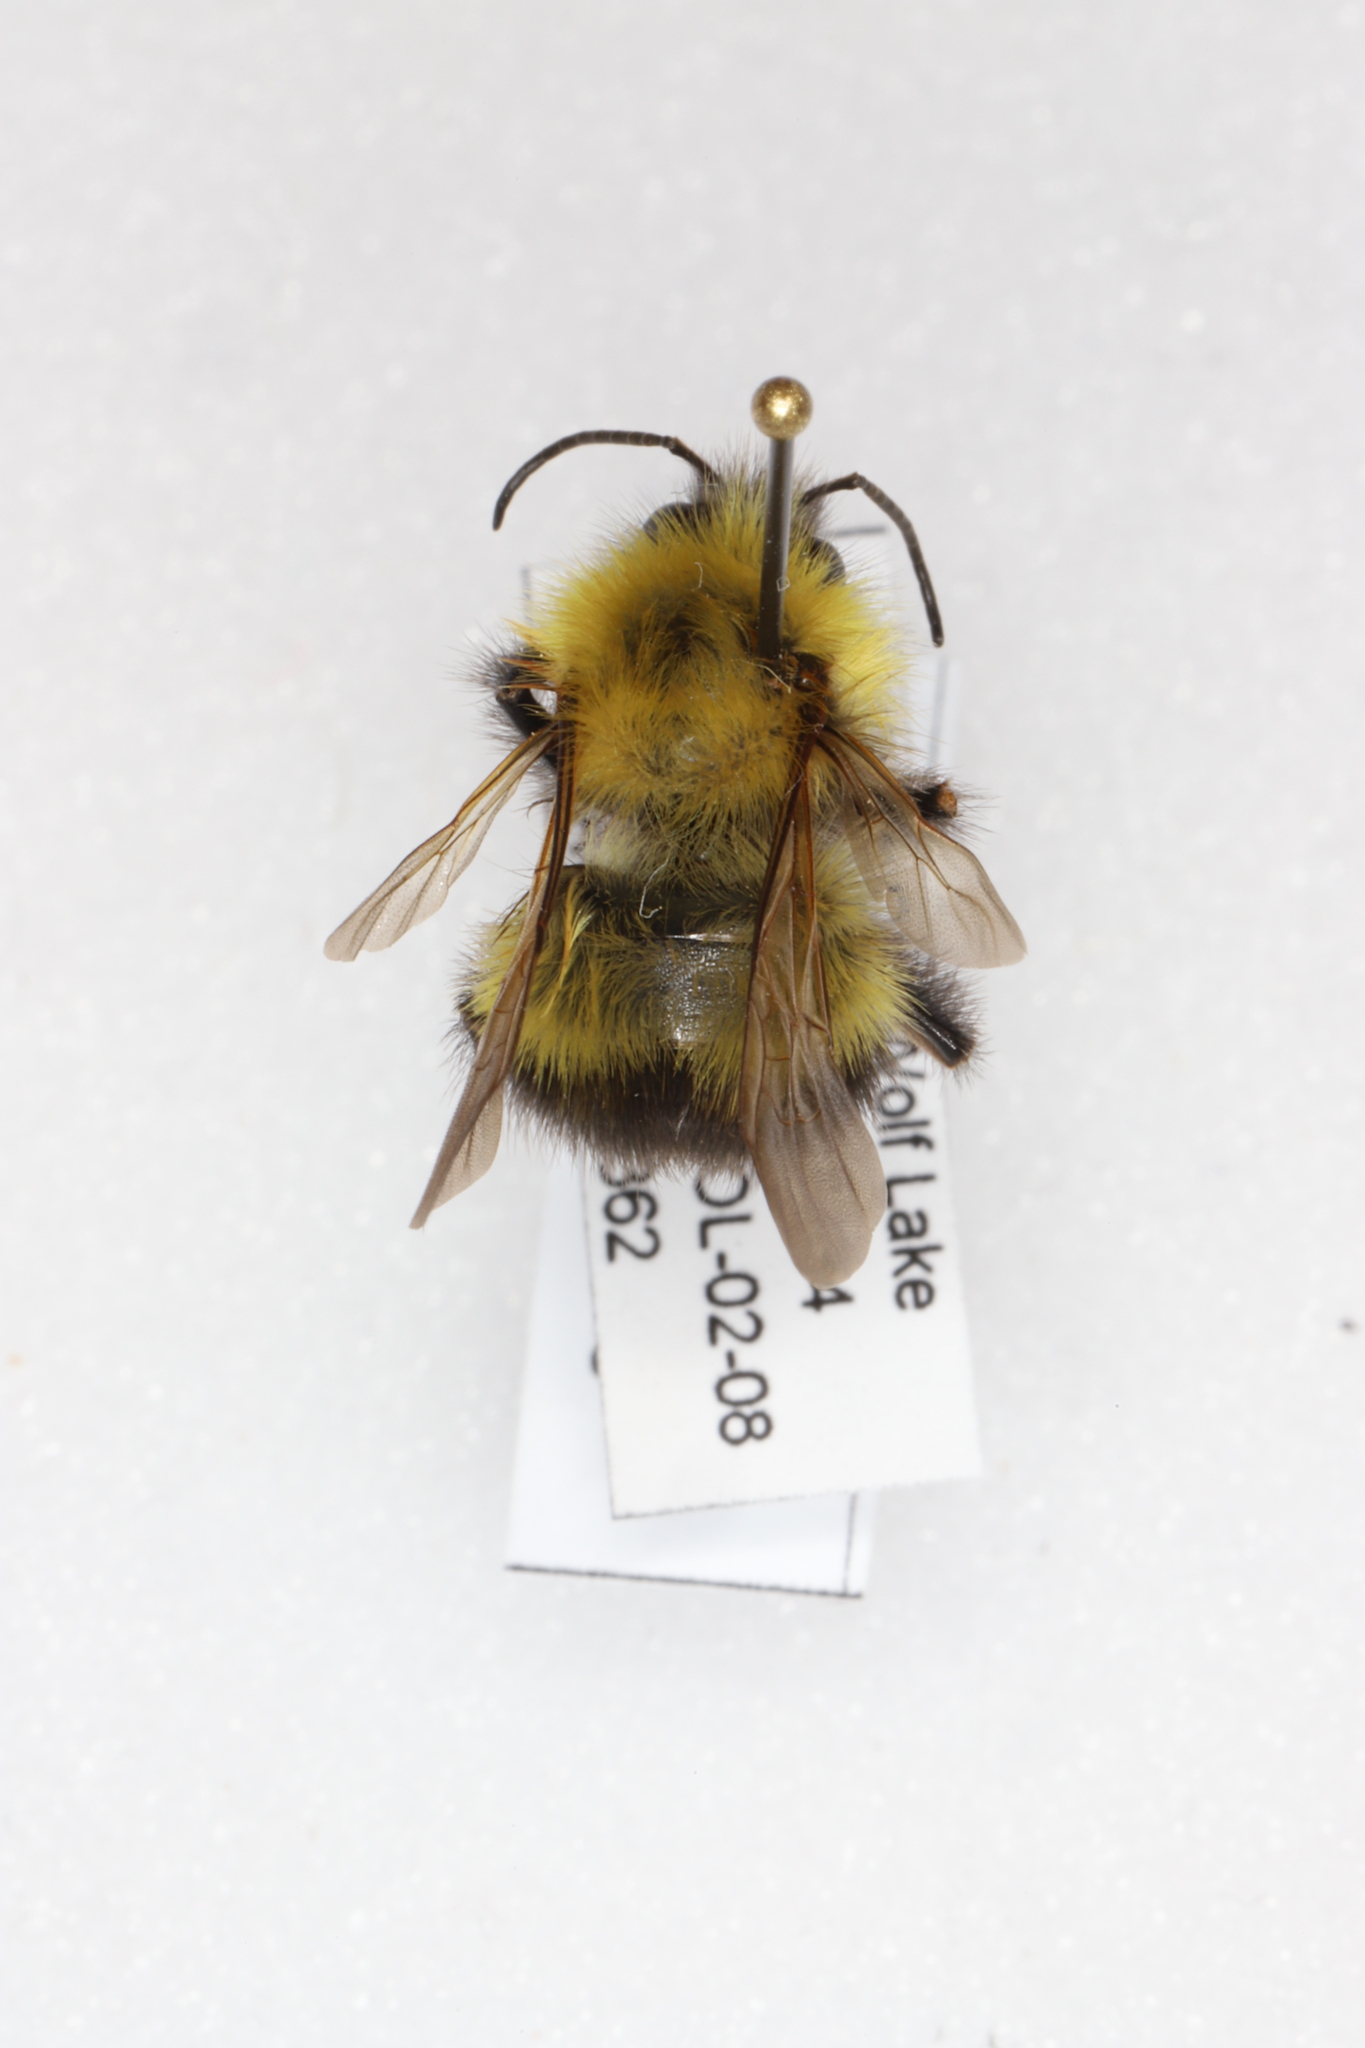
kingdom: Animalia
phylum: Arthropoda
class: Insecta
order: Hymenoptera
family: Apidae
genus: Bombus
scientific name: Bombus perplexus
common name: Confusing bumble bee
